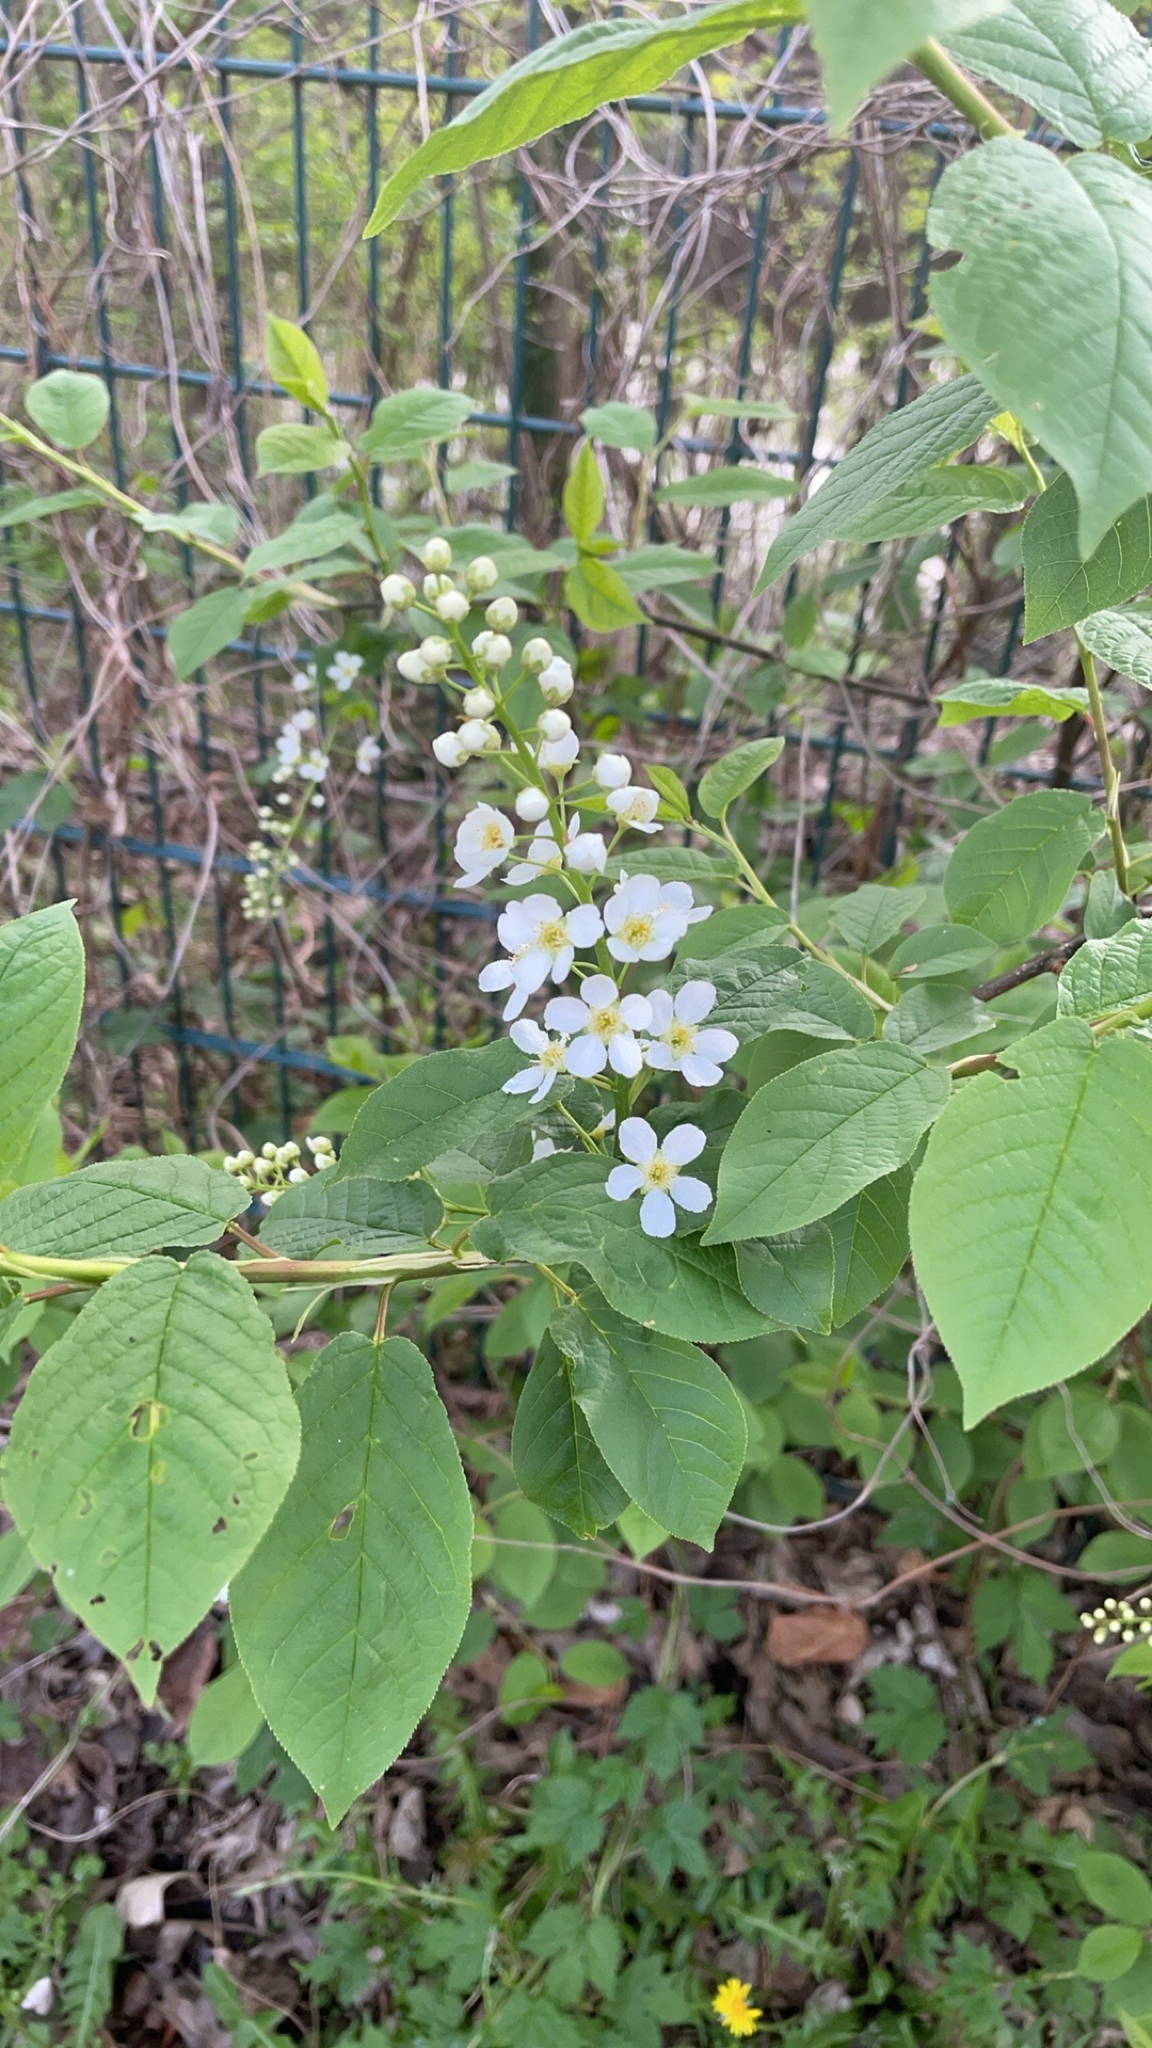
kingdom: Plantae
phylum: Tracheophyta
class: Magnoliopsida
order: Rosales
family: Rosaceae
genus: Prunus
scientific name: Prunus padus
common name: Bird cherry
